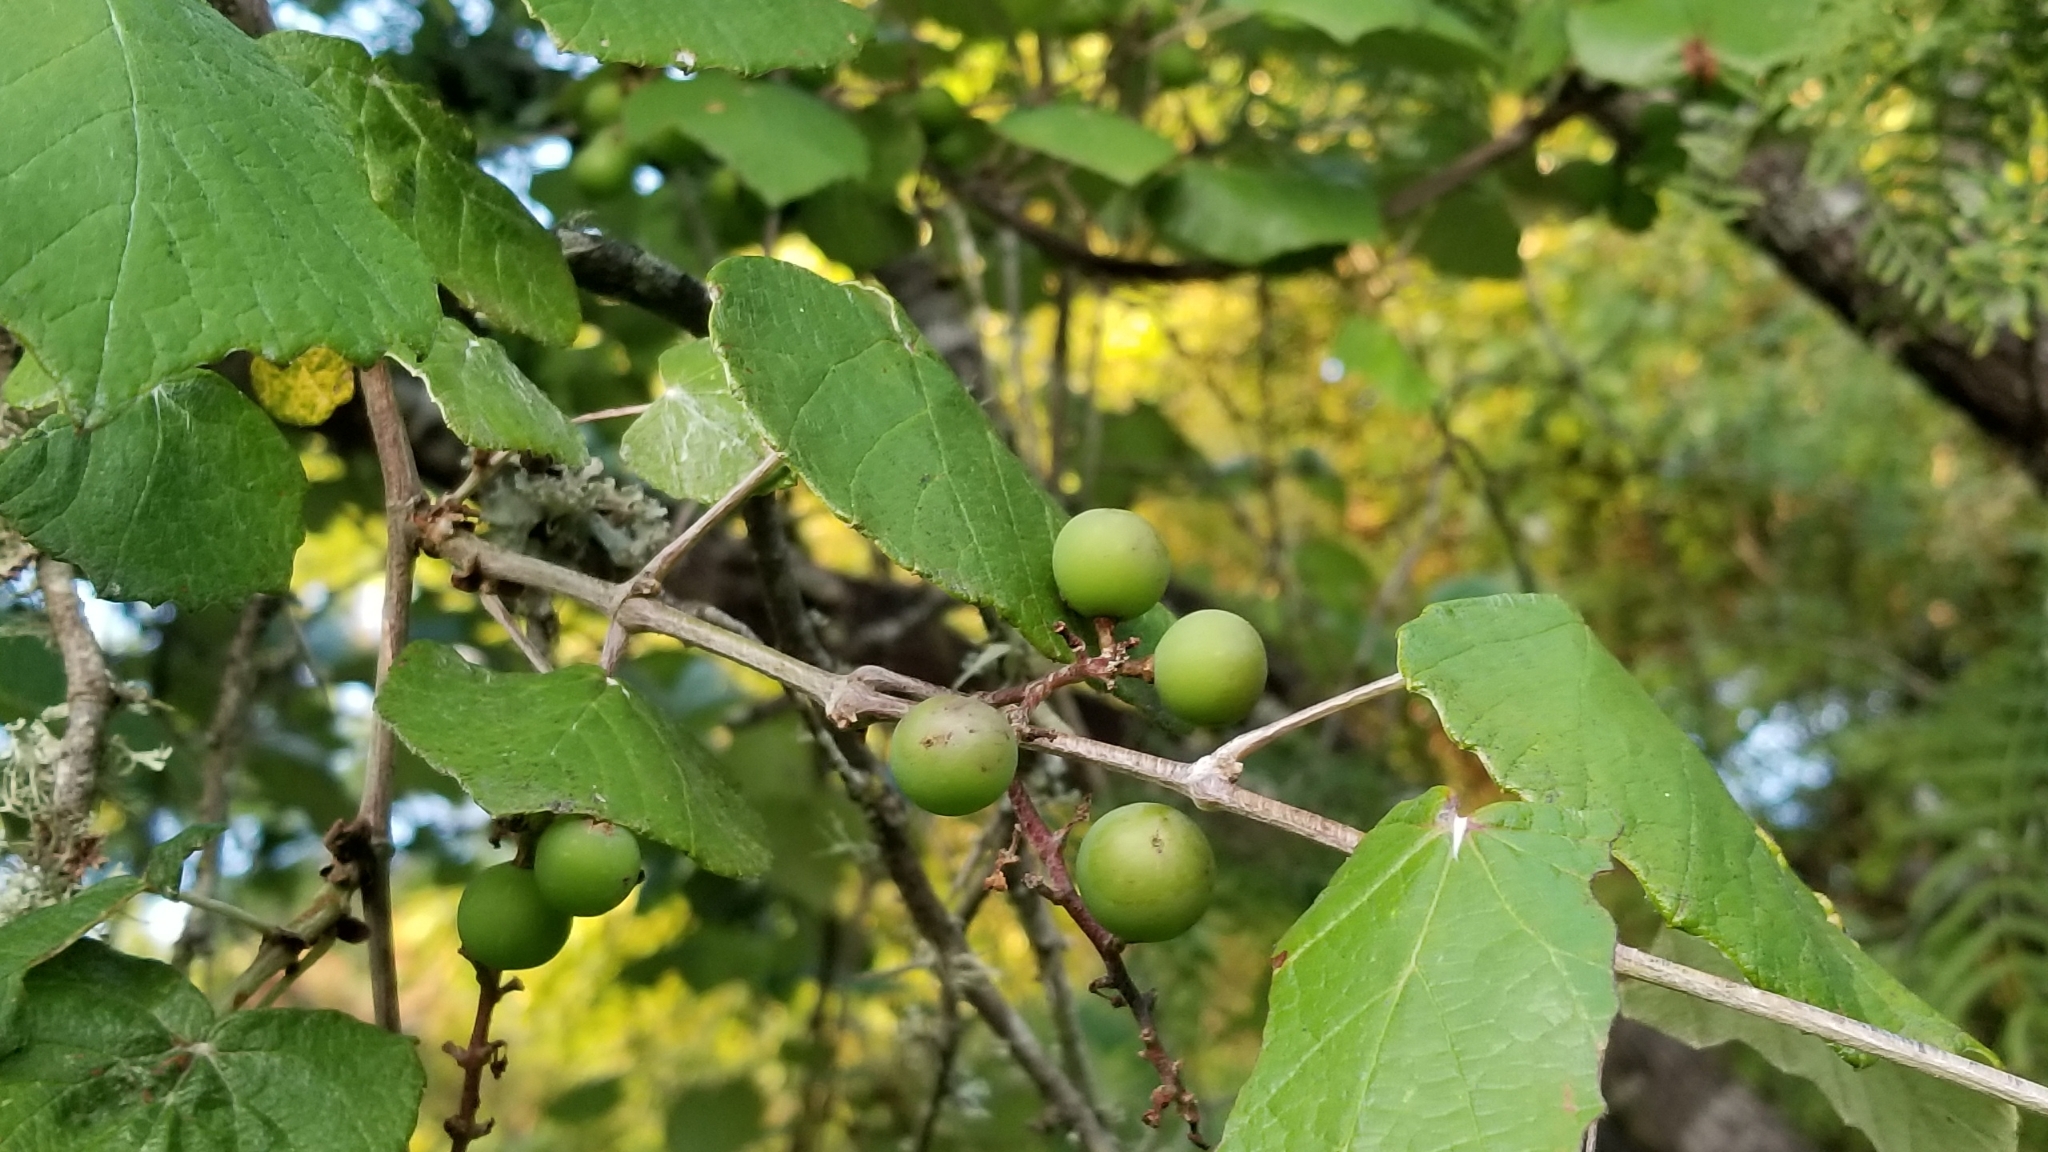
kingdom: Plantae
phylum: Tracheophyta
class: Magnoliopsida
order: Vitales
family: Vitaceae
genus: Vitis
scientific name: Vitis mustangensis
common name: Mustang grape
